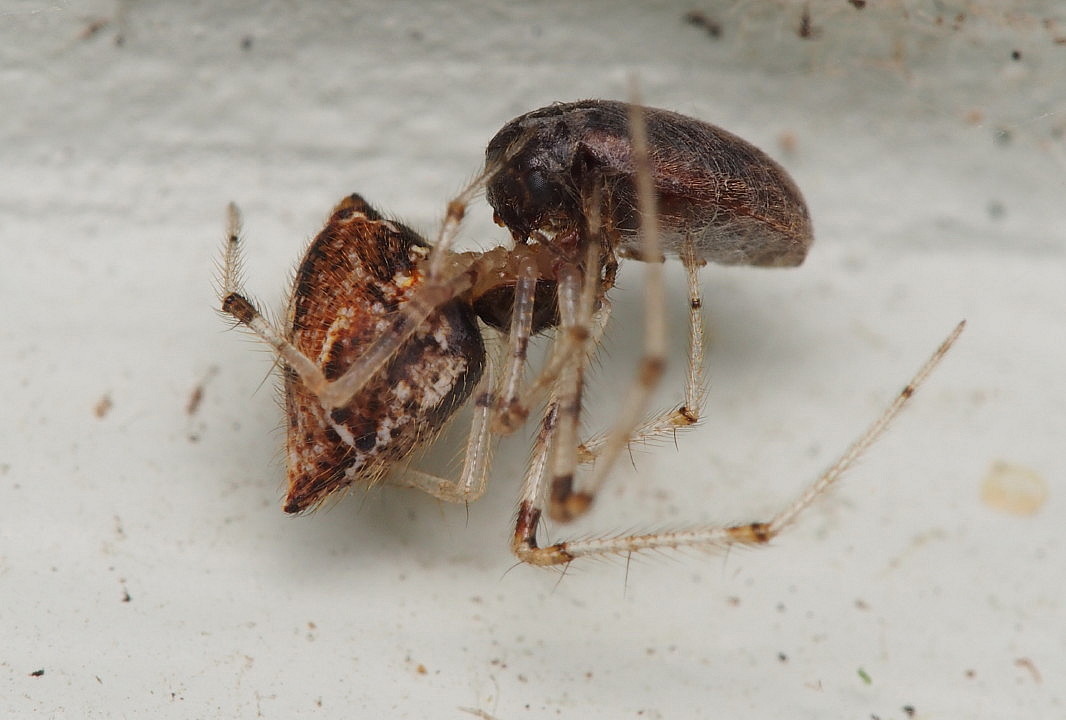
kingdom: Animalia
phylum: Arthropoda
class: Arachnida
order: Araneae
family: Theridiidae
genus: Cryptachaea
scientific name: Cryptachaea meraukensis
